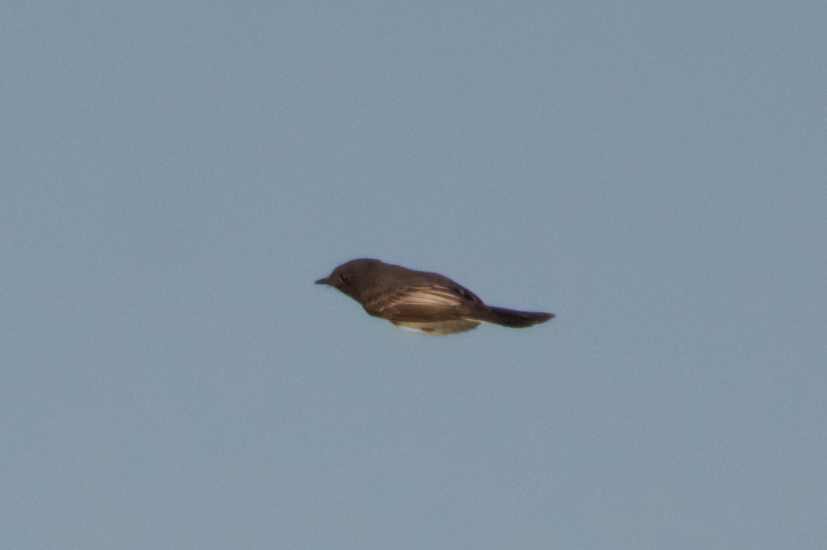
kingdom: Animalia
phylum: Chordata
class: Aves
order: Passeriformes
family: Tyrannidae
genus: Sayornis
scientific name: Sayornis nigricans
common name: Black phoebe
